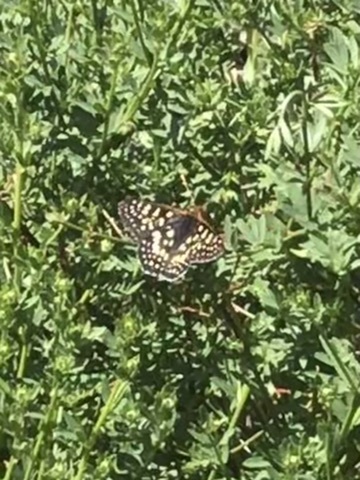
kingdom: Animalia
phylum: Arthropoda
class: Insecta
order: Lepidoptera
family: Nymphalidae
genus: Occidryas
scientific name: Occidryas chalcedona
